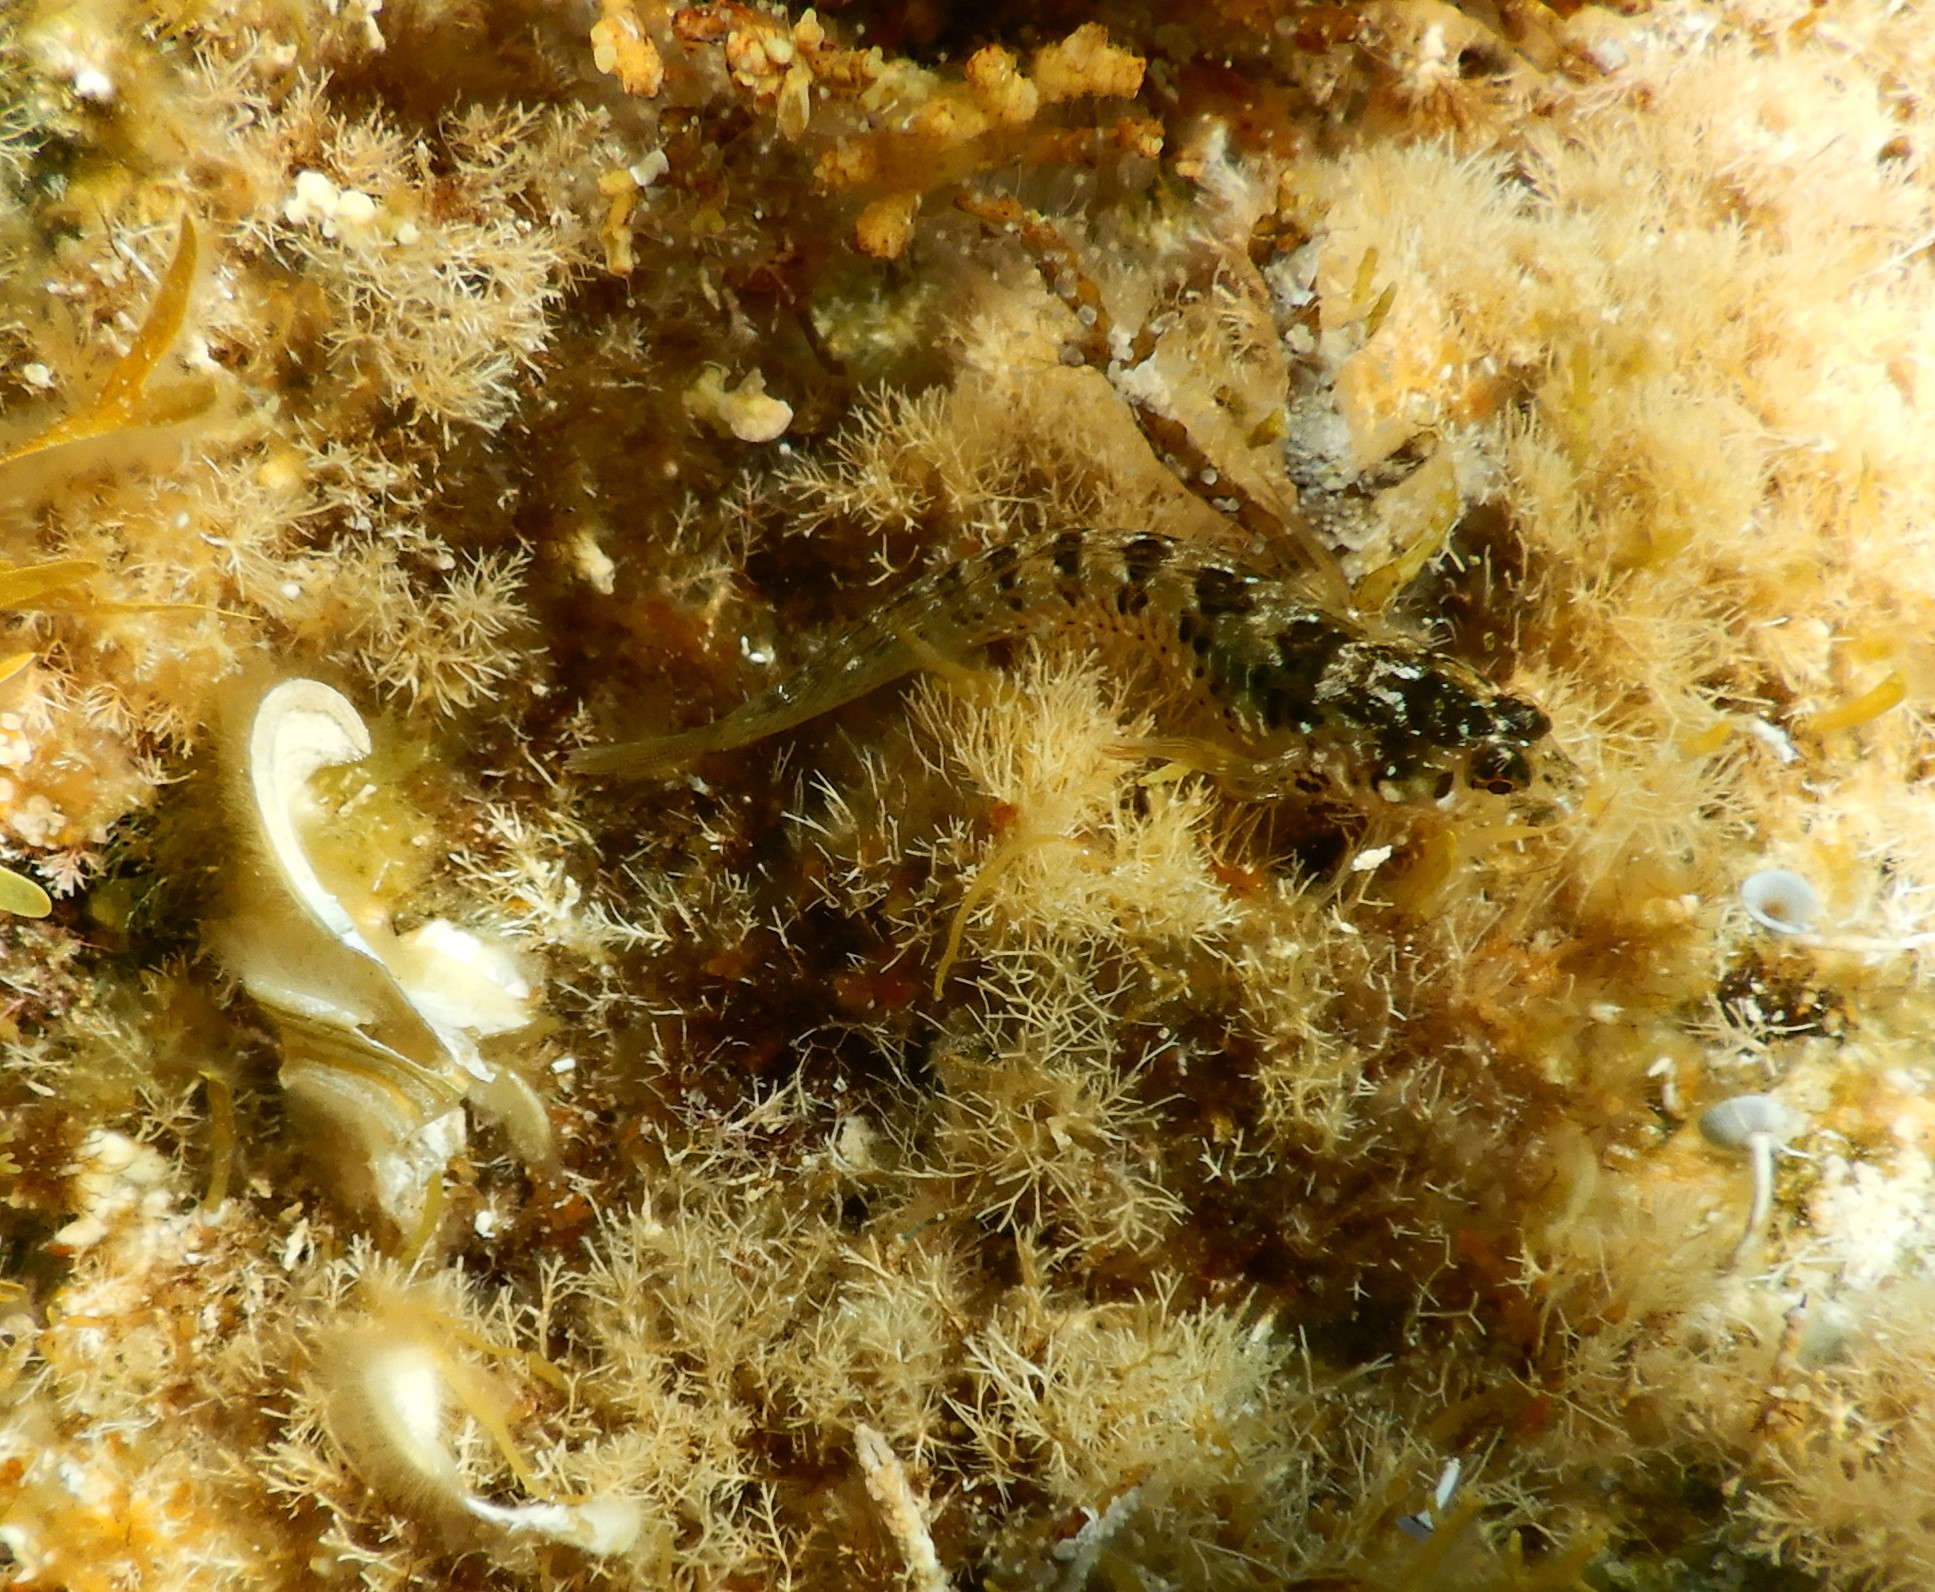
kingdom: Animalia
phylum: Chordata
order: Perciformes
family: Blenniidae
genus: Parablennius
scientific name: Parablennius incognitus
